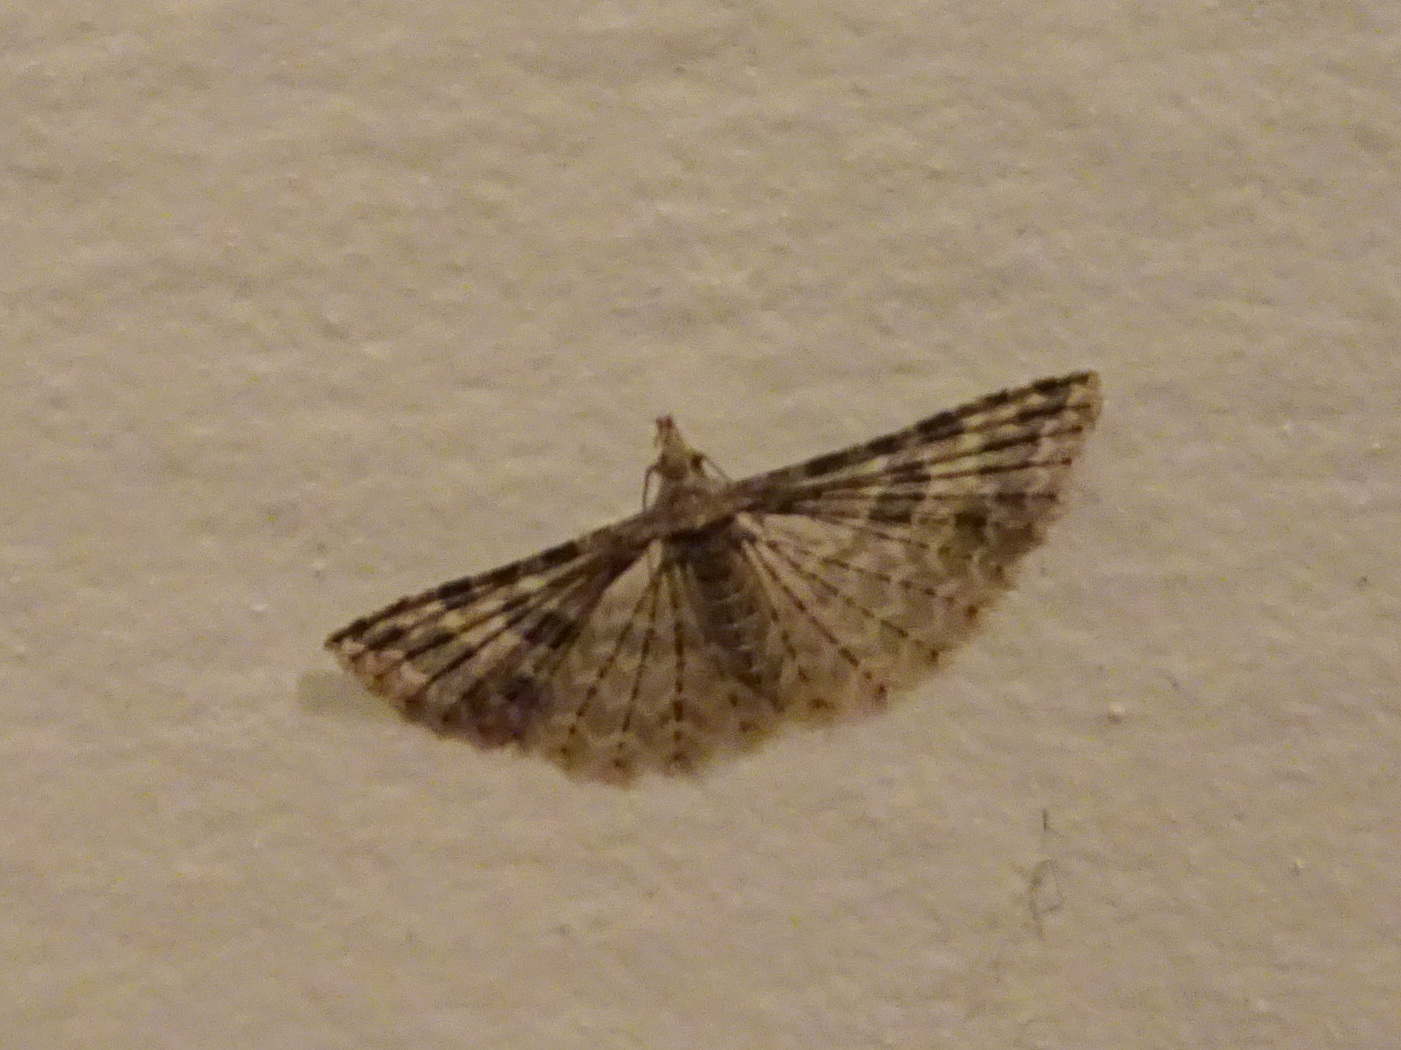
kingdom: Animalia
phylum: Arthropoda
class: Insecta
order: Lepidoptera
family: Alucitidae
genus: Alucita
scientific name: Alucita montana
